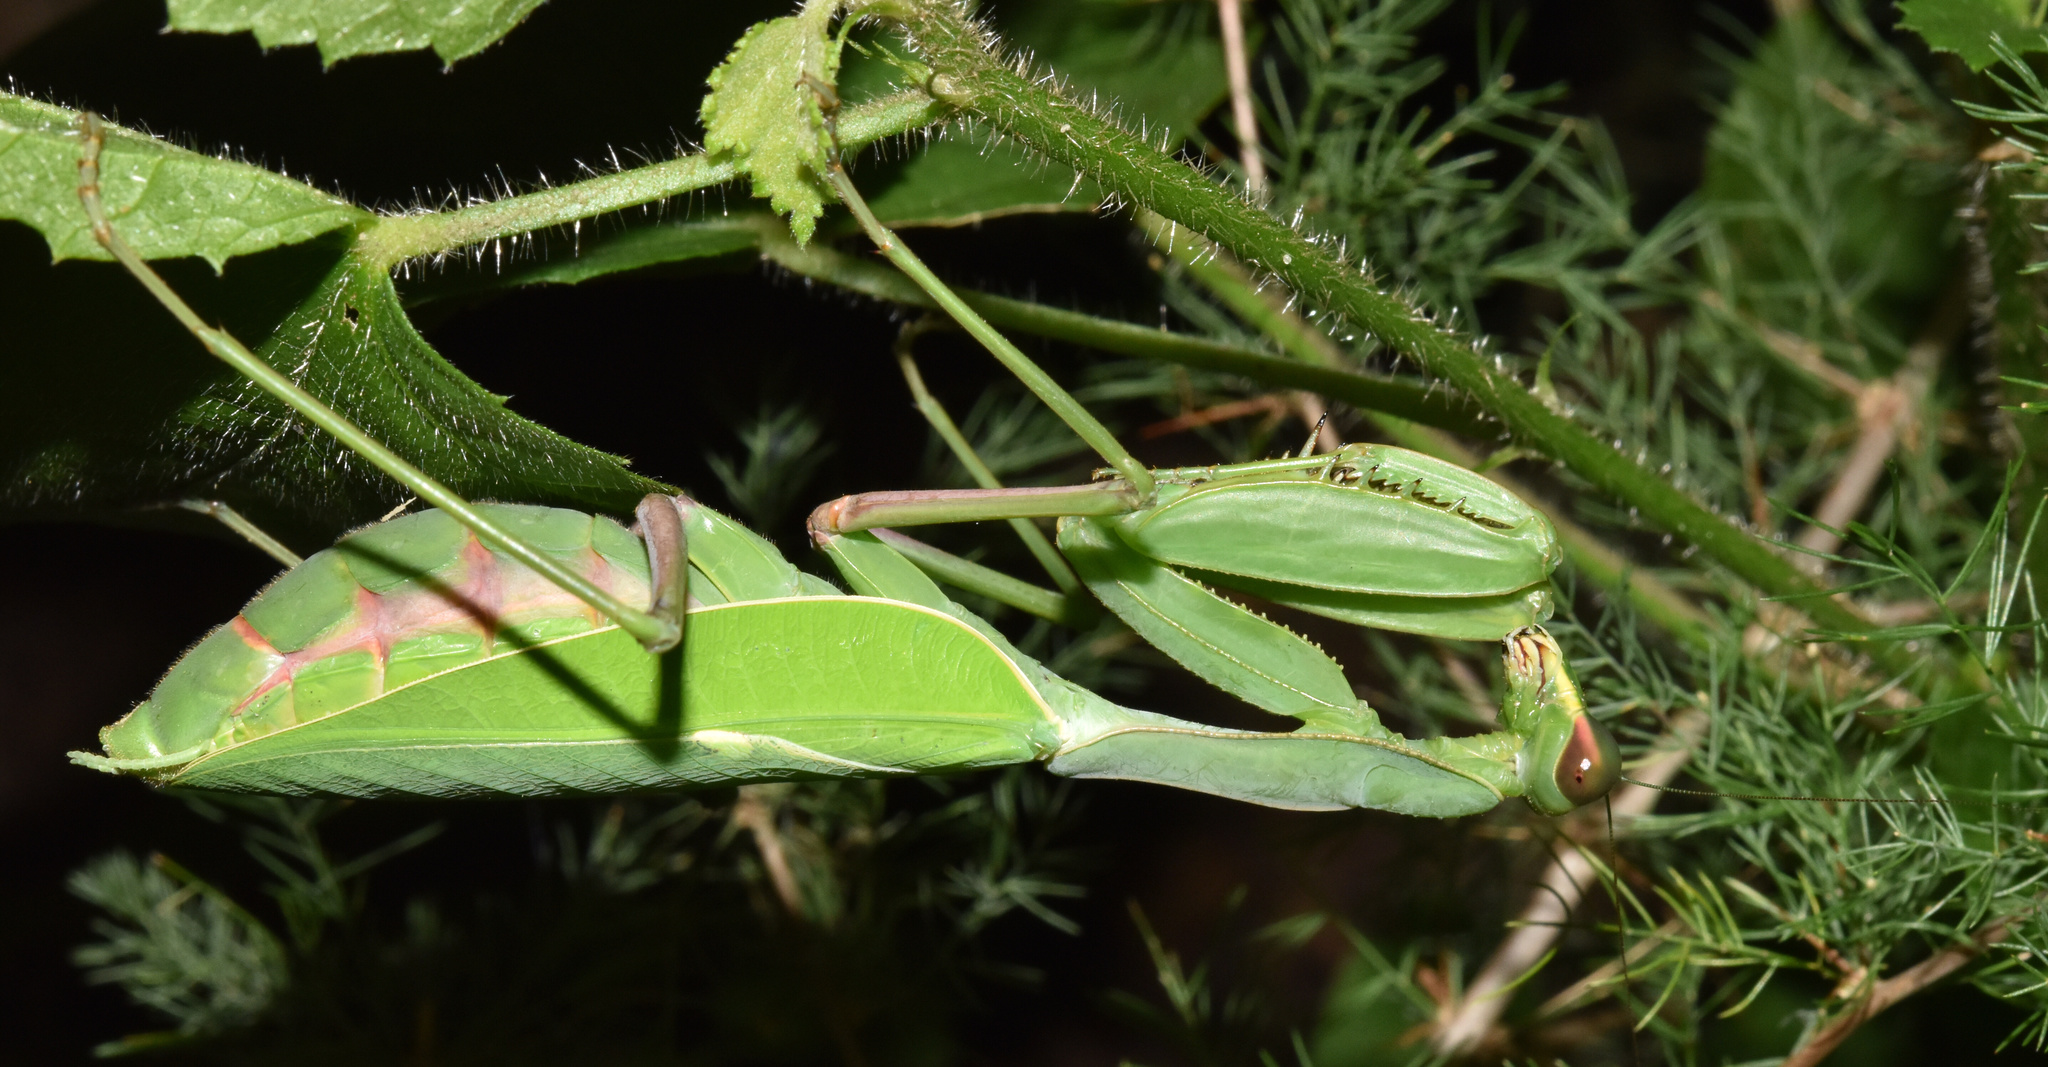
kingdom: Animalia
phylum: Arthropoda
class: Insecta
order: Mantodea
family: Mantidae
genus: Sphodromantis
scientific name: Sphodromantis gastrica
